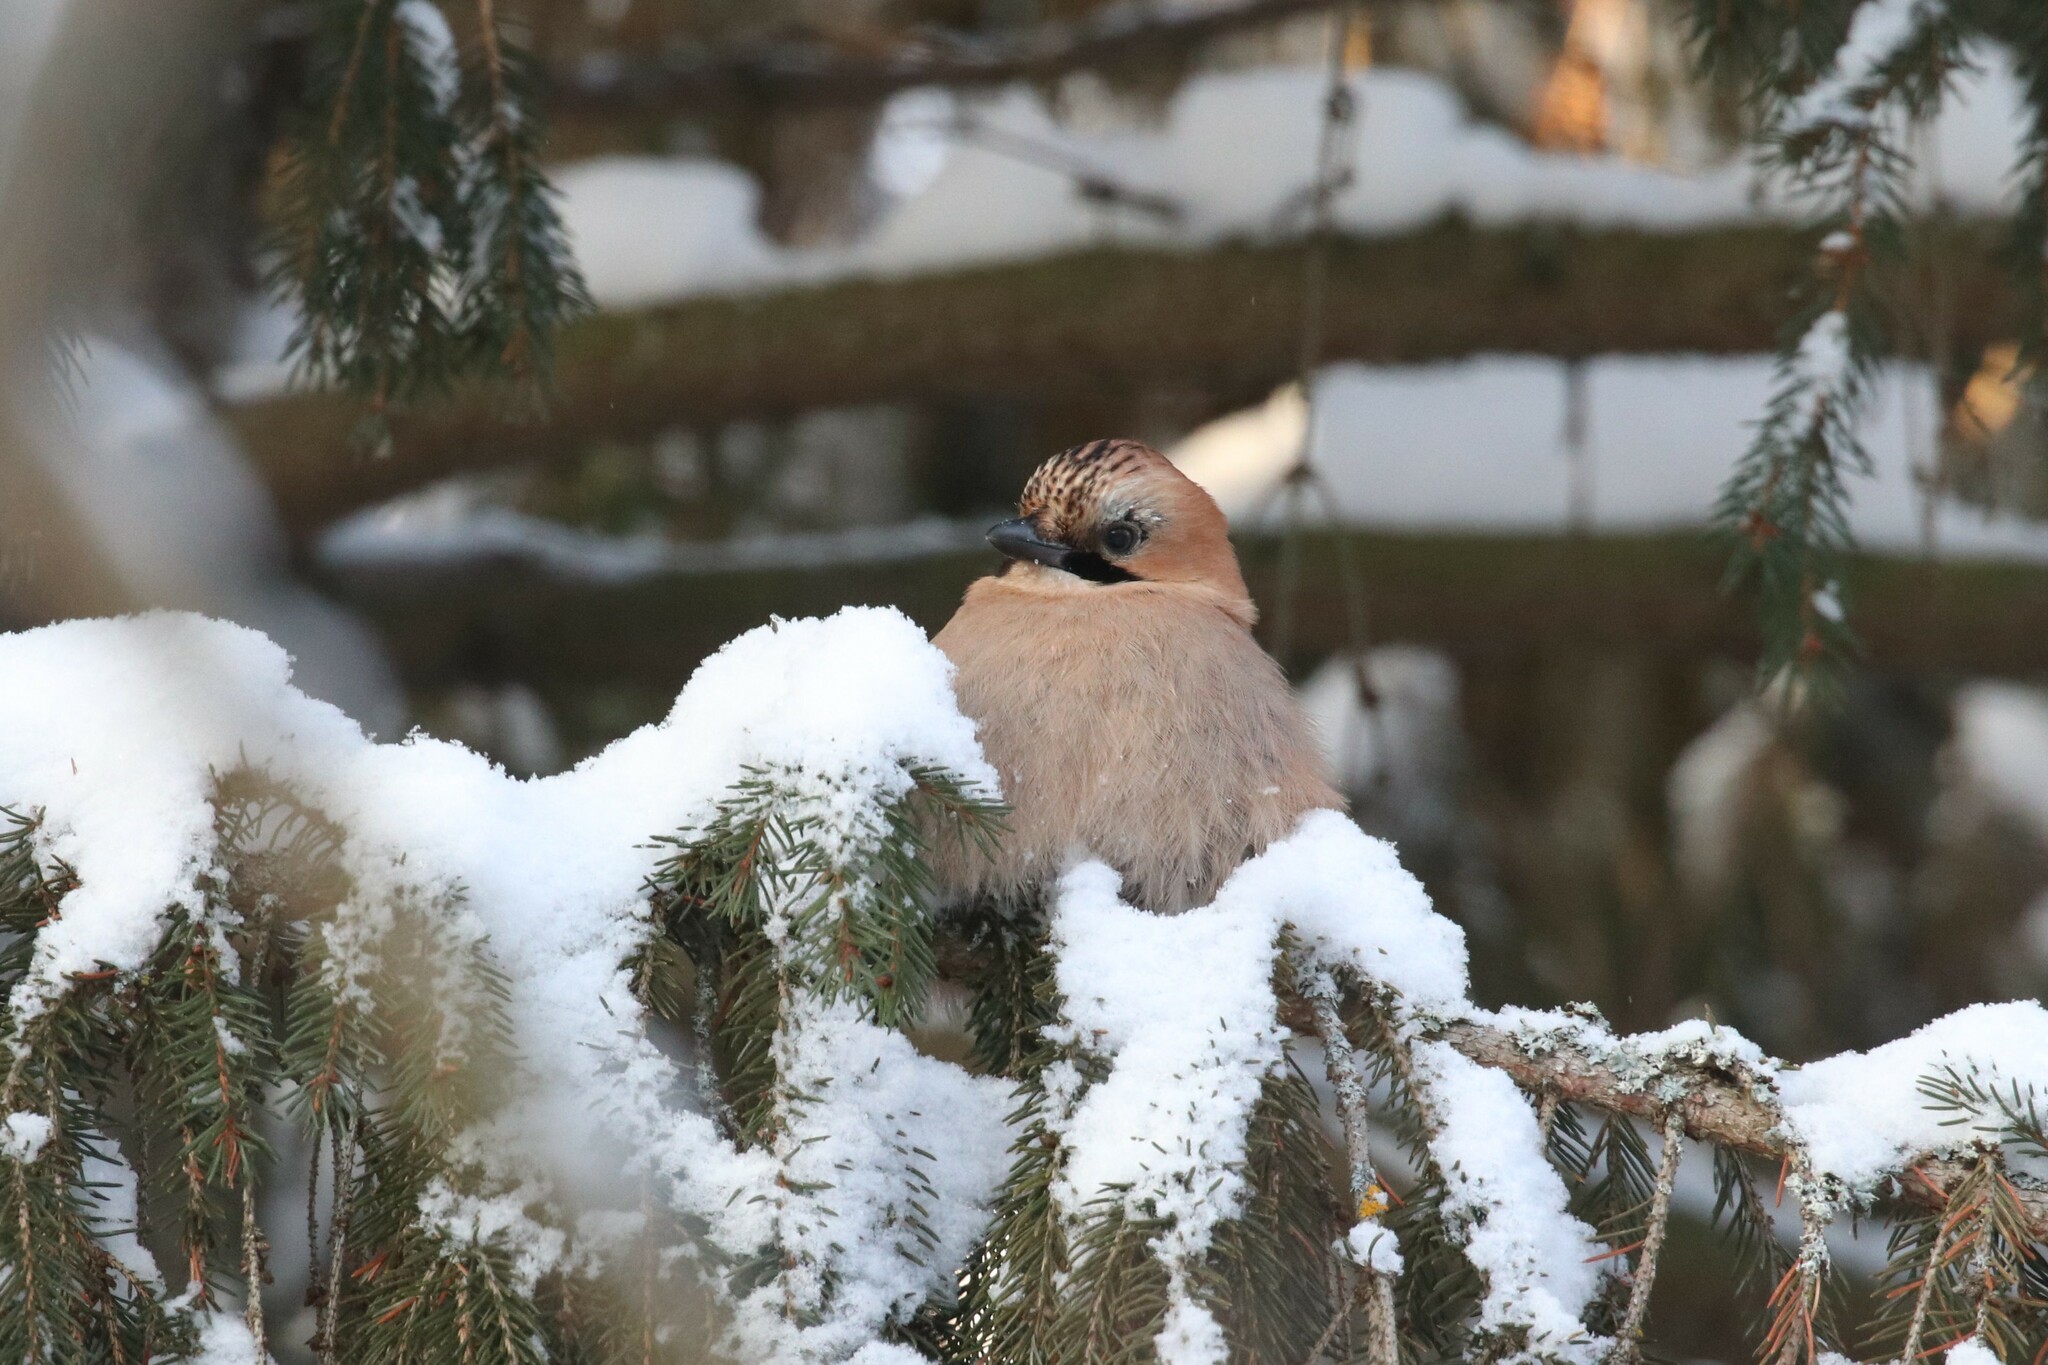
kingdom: Animalia
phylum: Chordata
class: Aves
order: Passeriformes
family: Corvidae
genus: Garrulus
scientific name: Garrulus glandarius
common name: Eurasian jay
